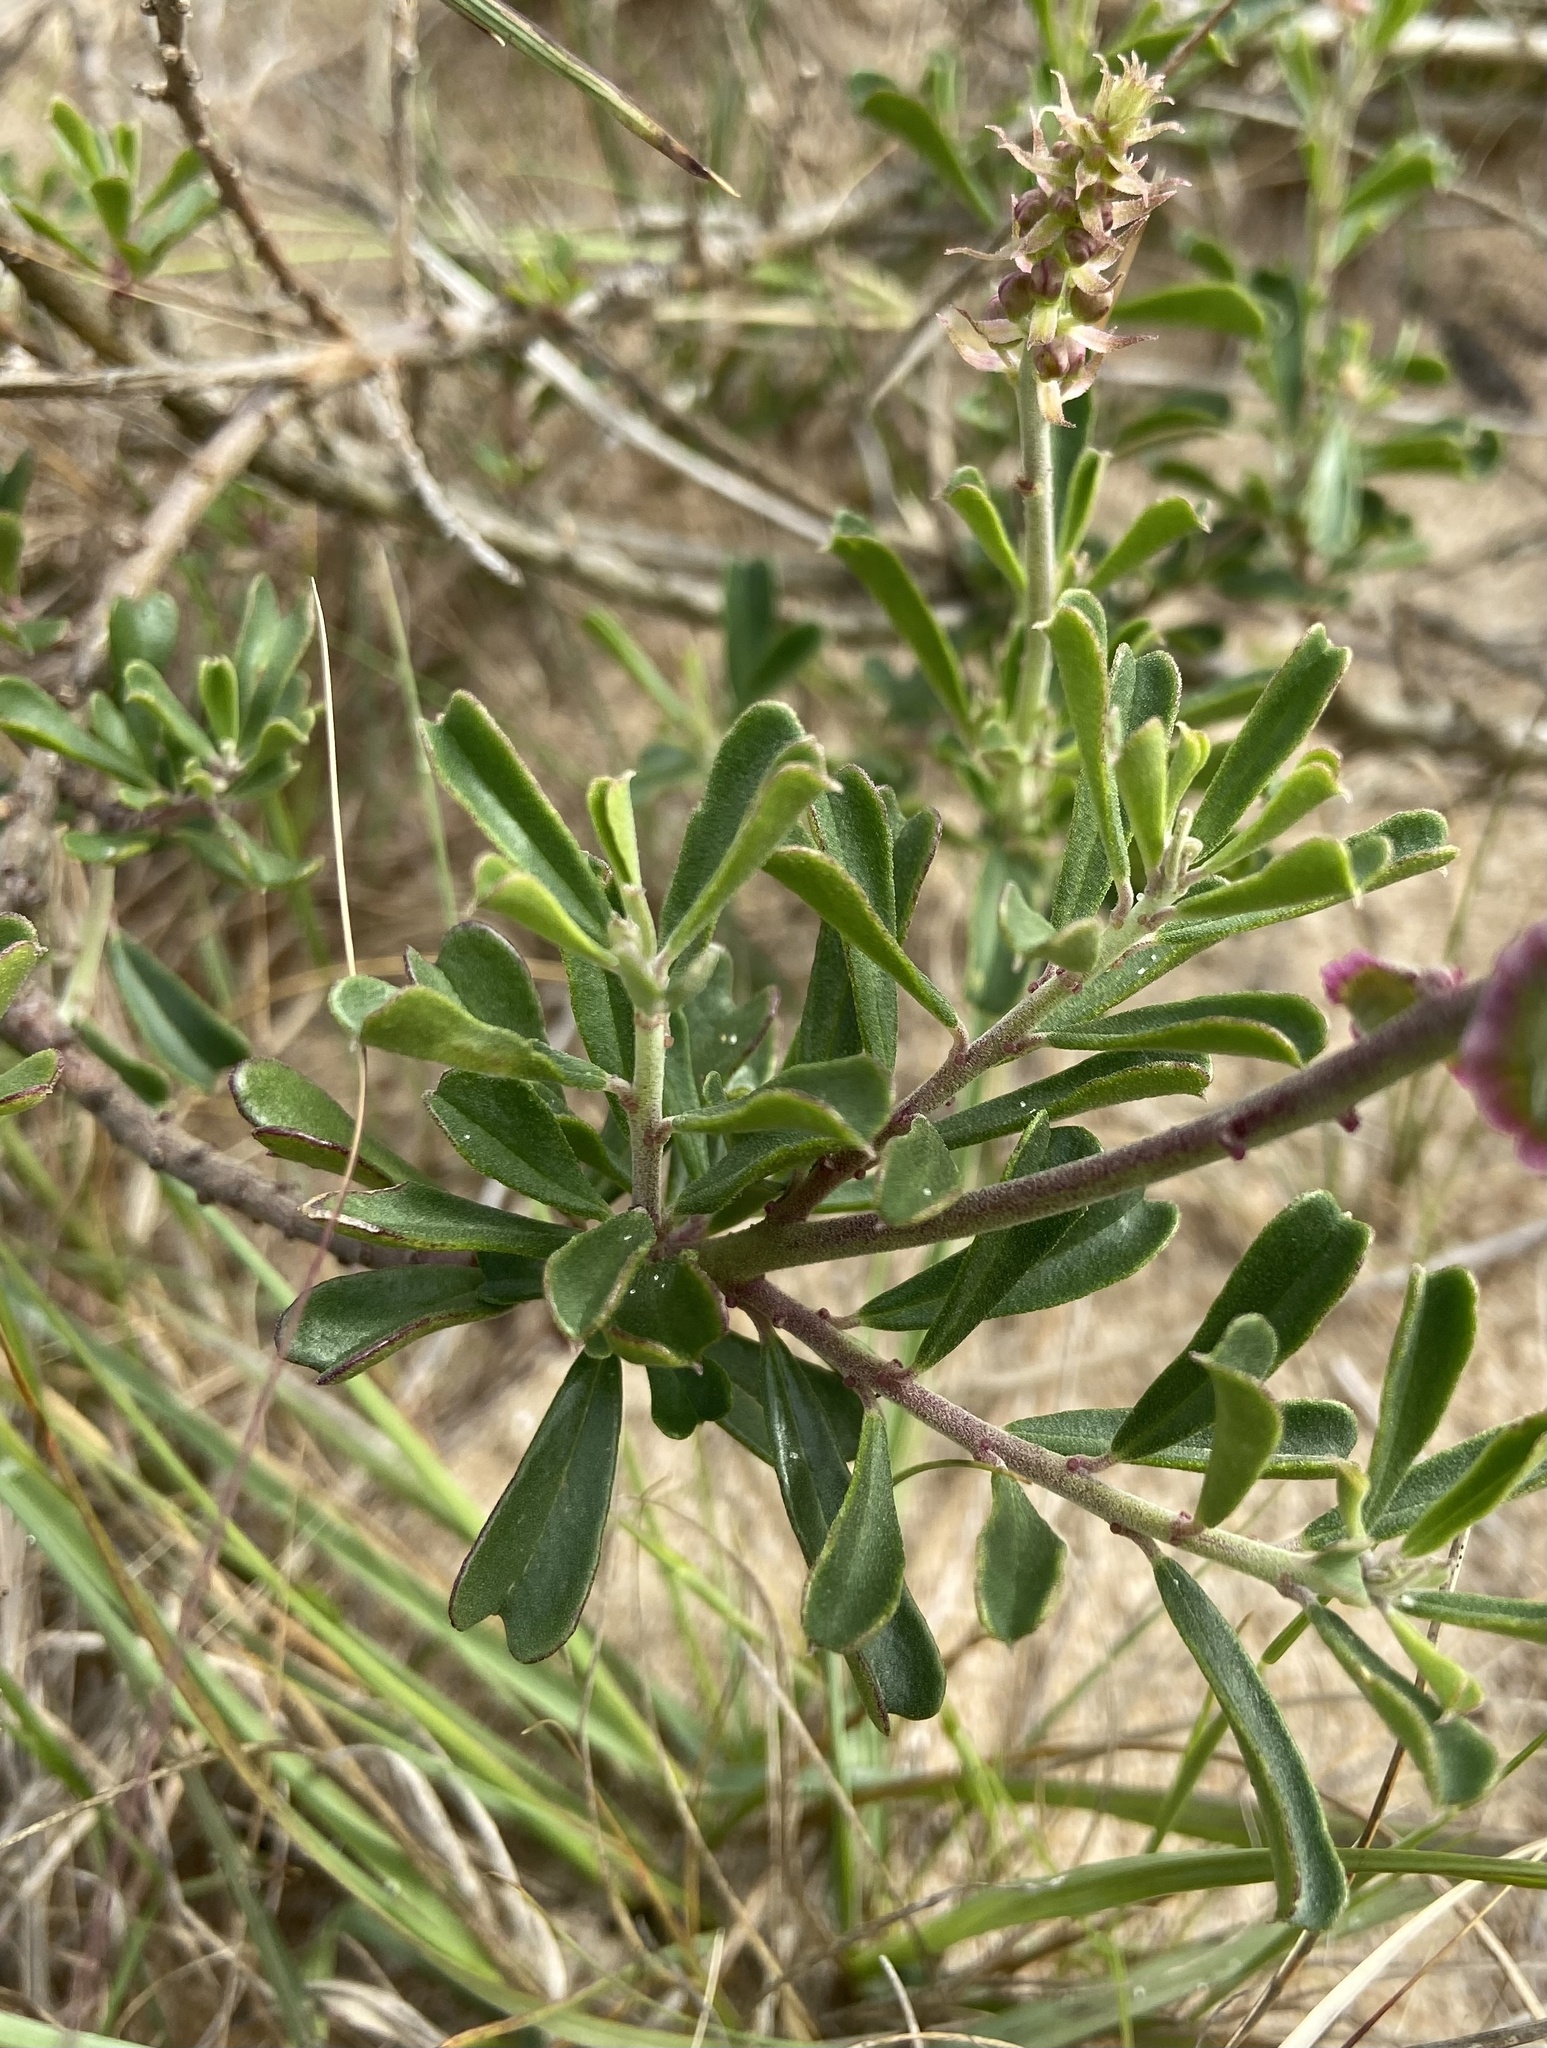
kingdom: Plantae
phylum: Tracheophyta
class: Magnoliopsida
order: Fabales
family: Polygalaceae
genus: Monnina
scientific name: Monnina cuneata
